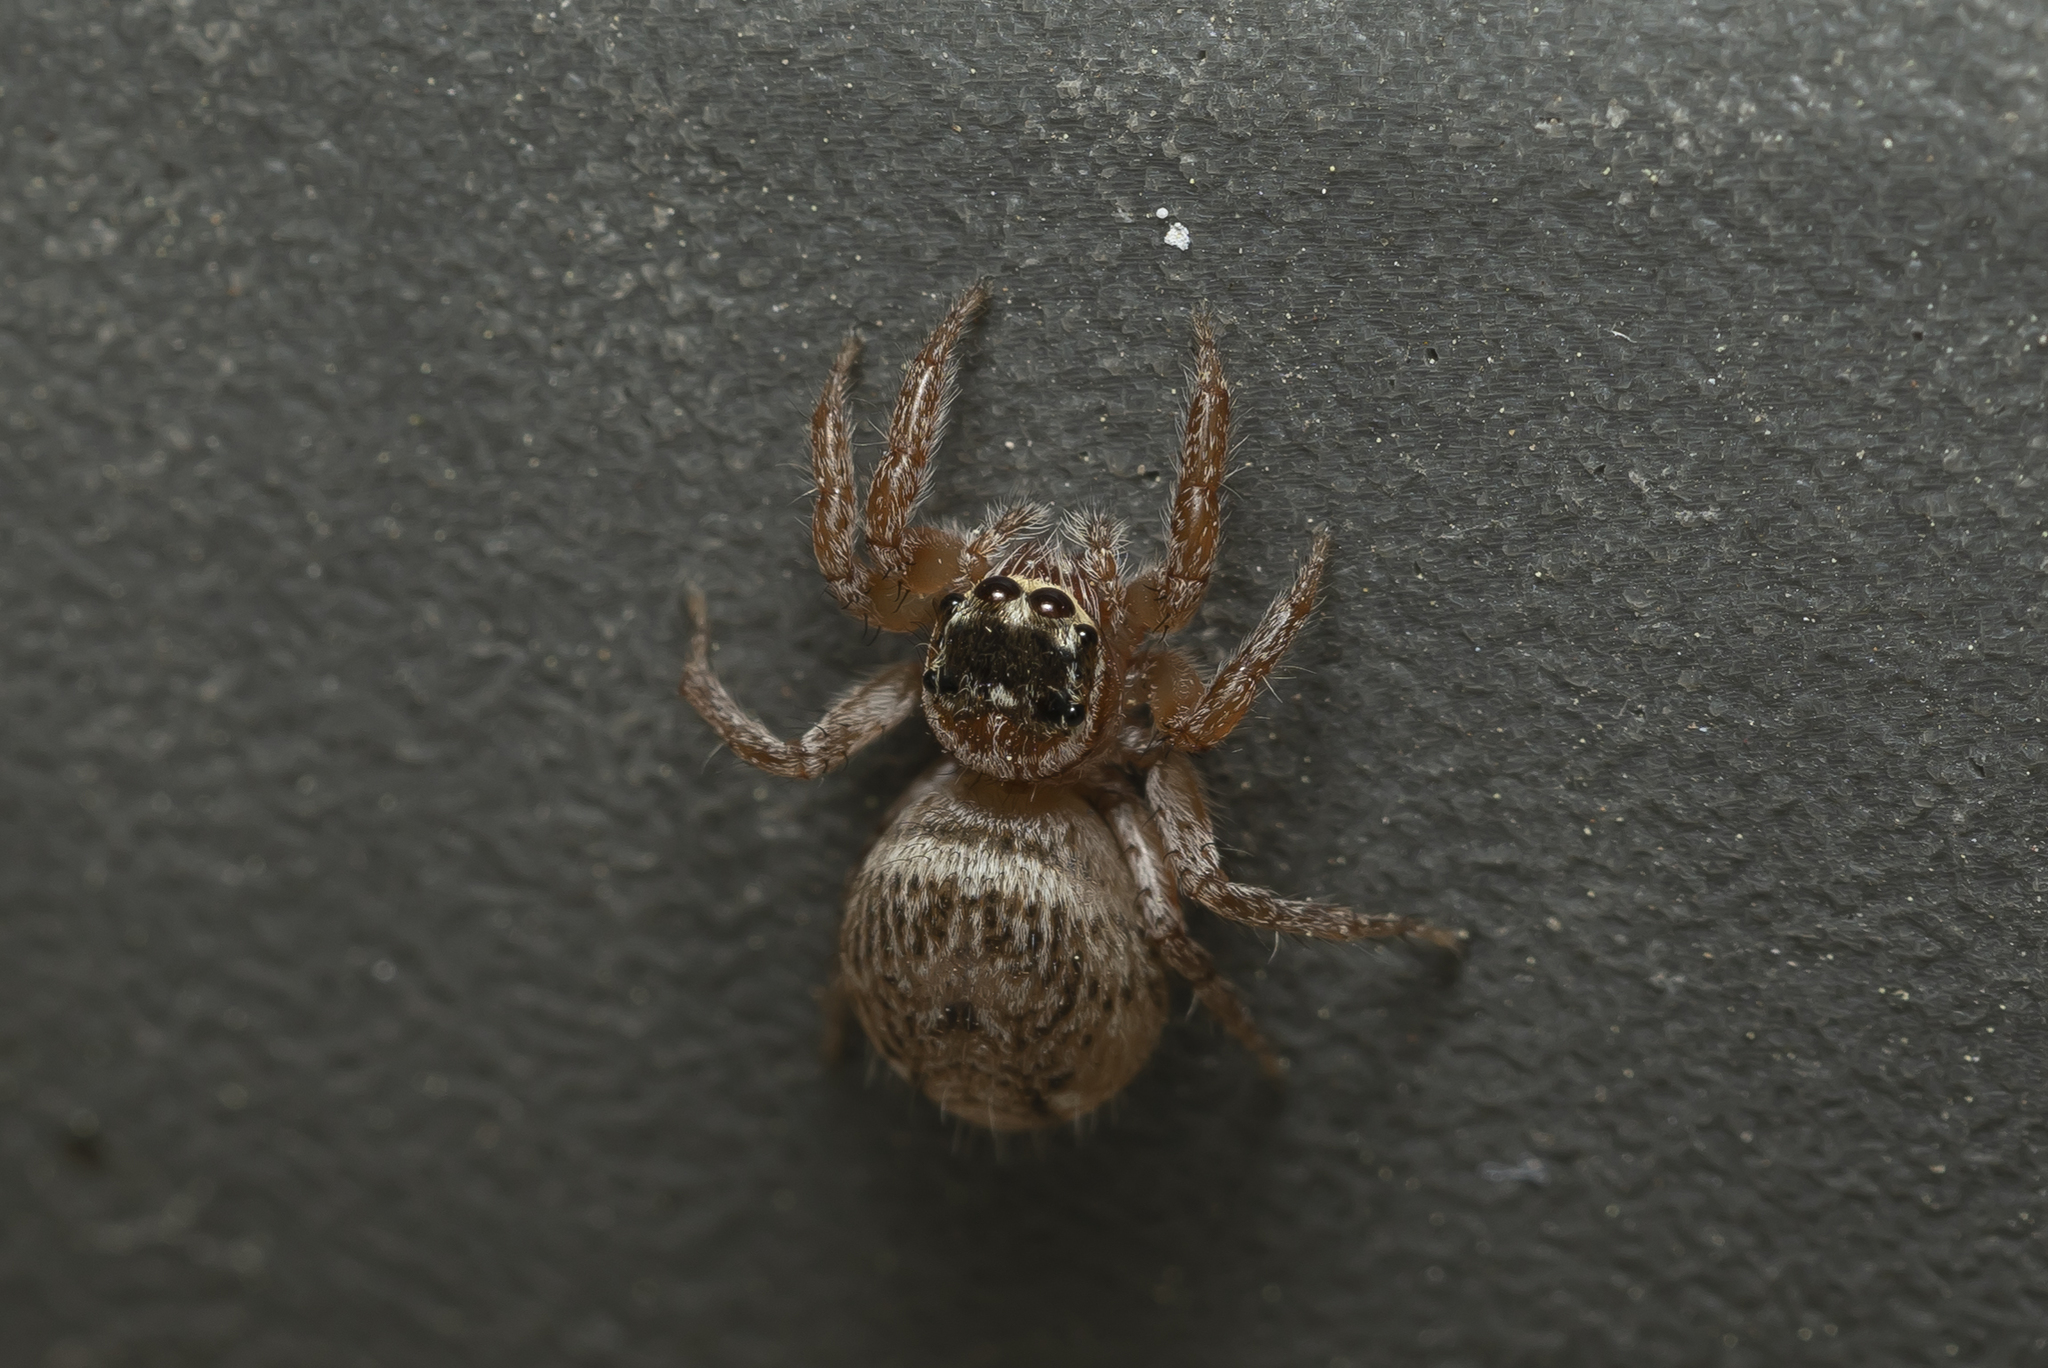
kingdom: Animalia
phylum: Arthropoda
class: Arachnida
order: Araneae
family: Salticidae
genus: Evarcha
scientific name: Evarcha jucunda
